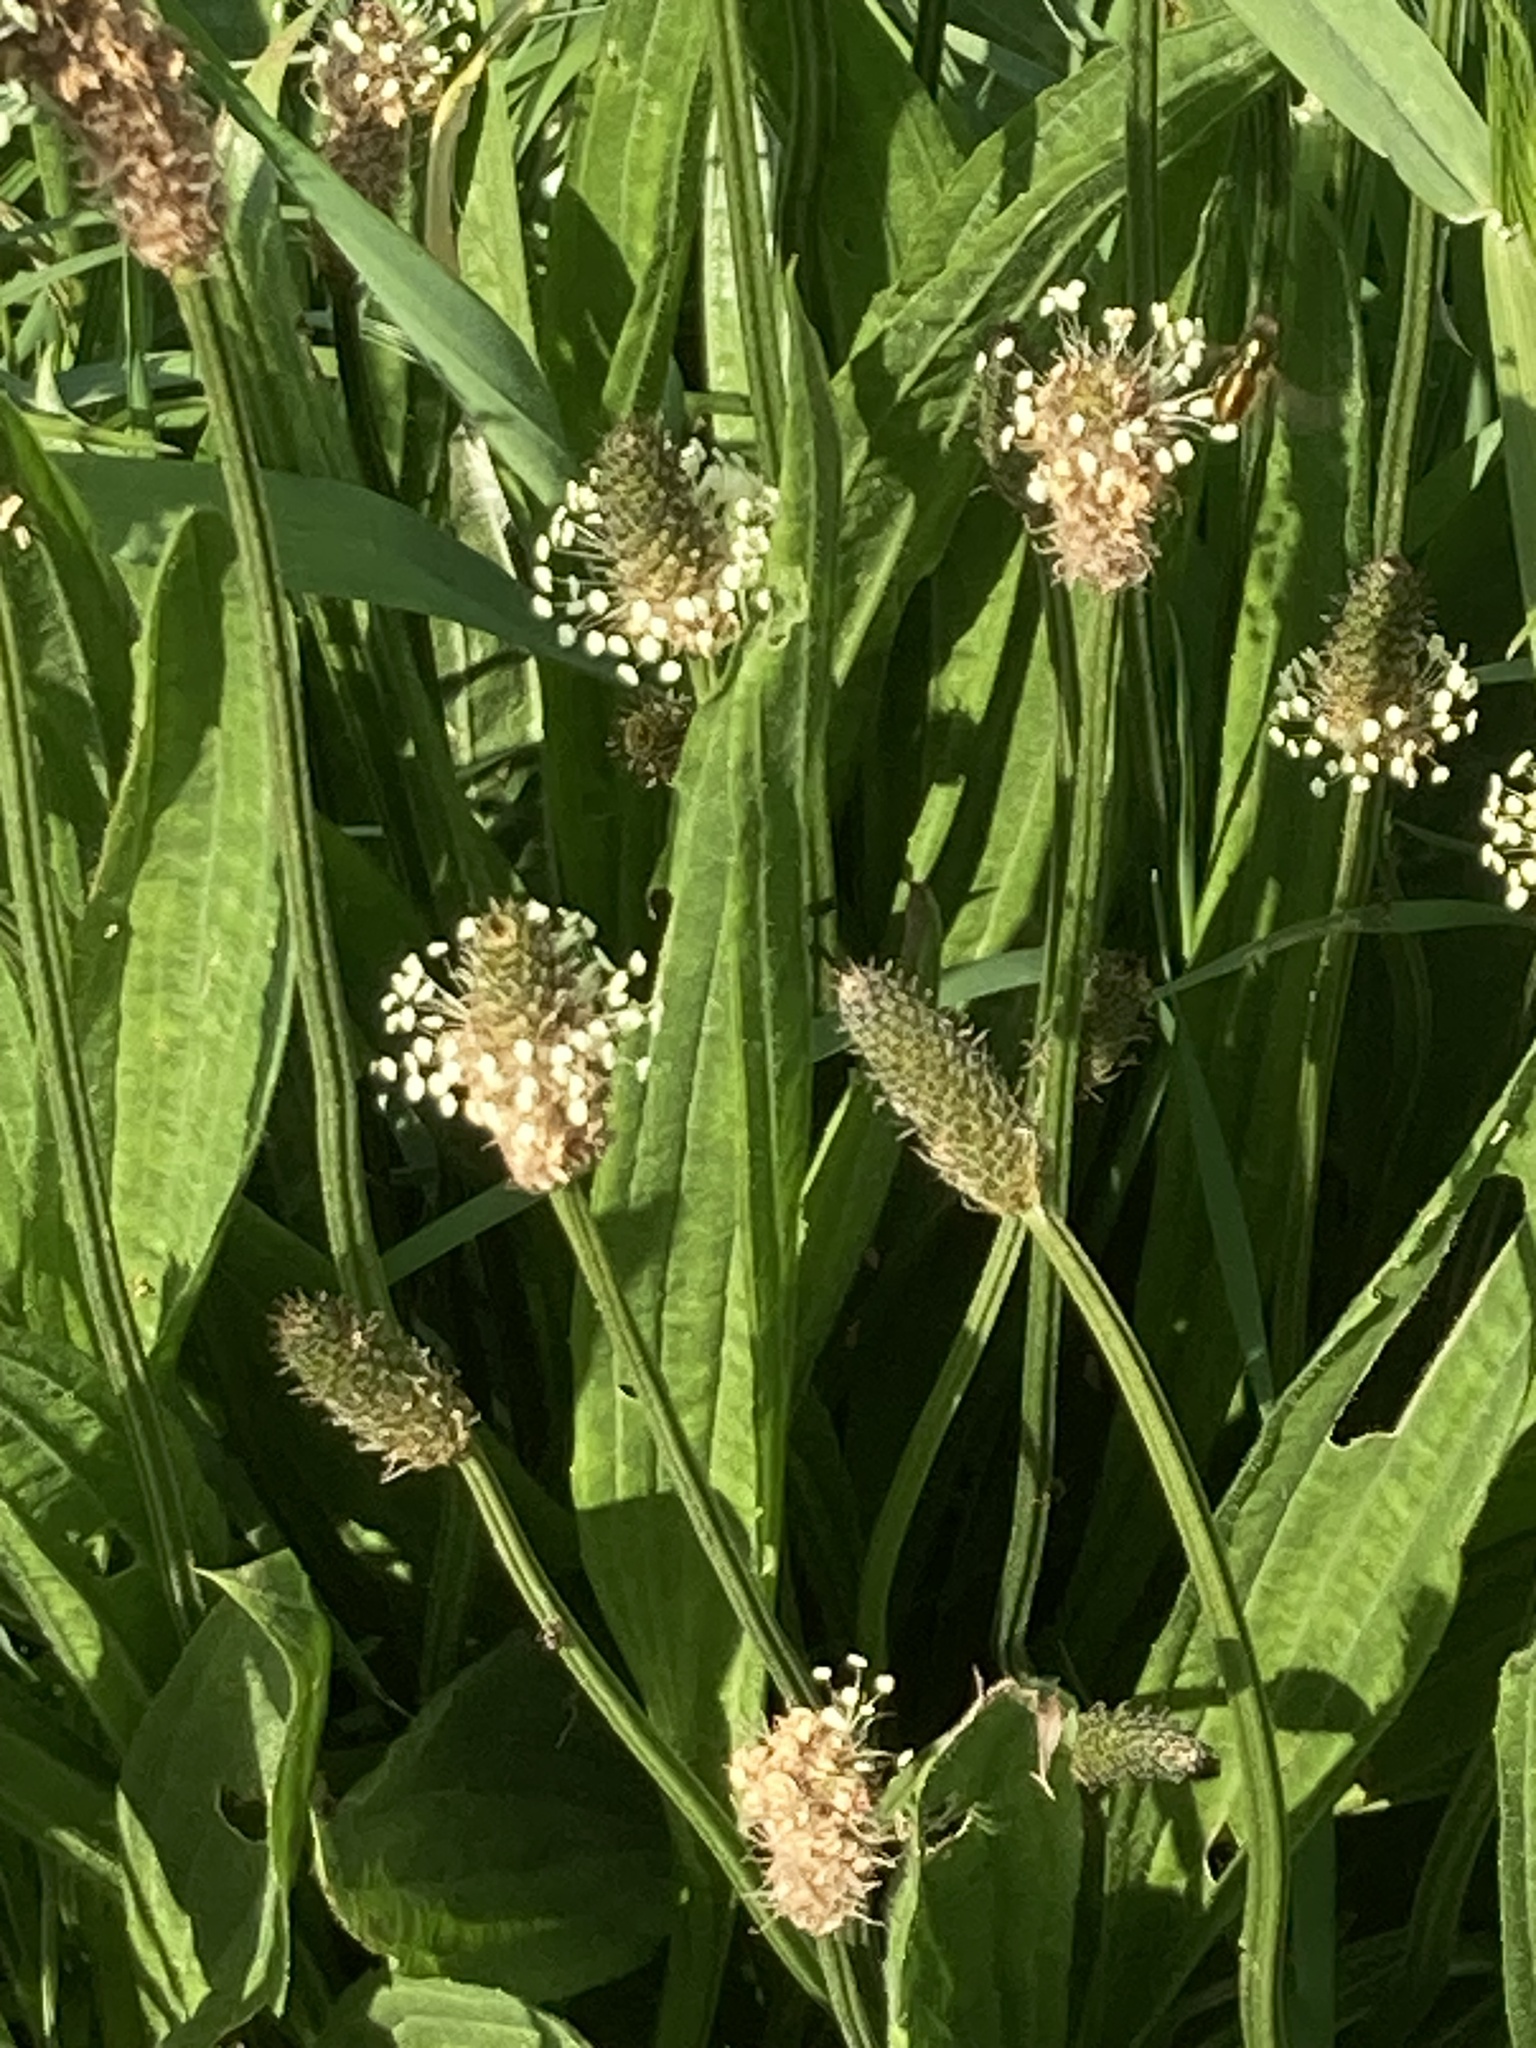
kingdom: Plantae
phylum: Tracheophyta
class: Magnoliopsida
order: Lamiales
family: Plantaginaceae
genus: Plantago
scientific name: Plantago lanceolata
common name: Ribwort plantain
